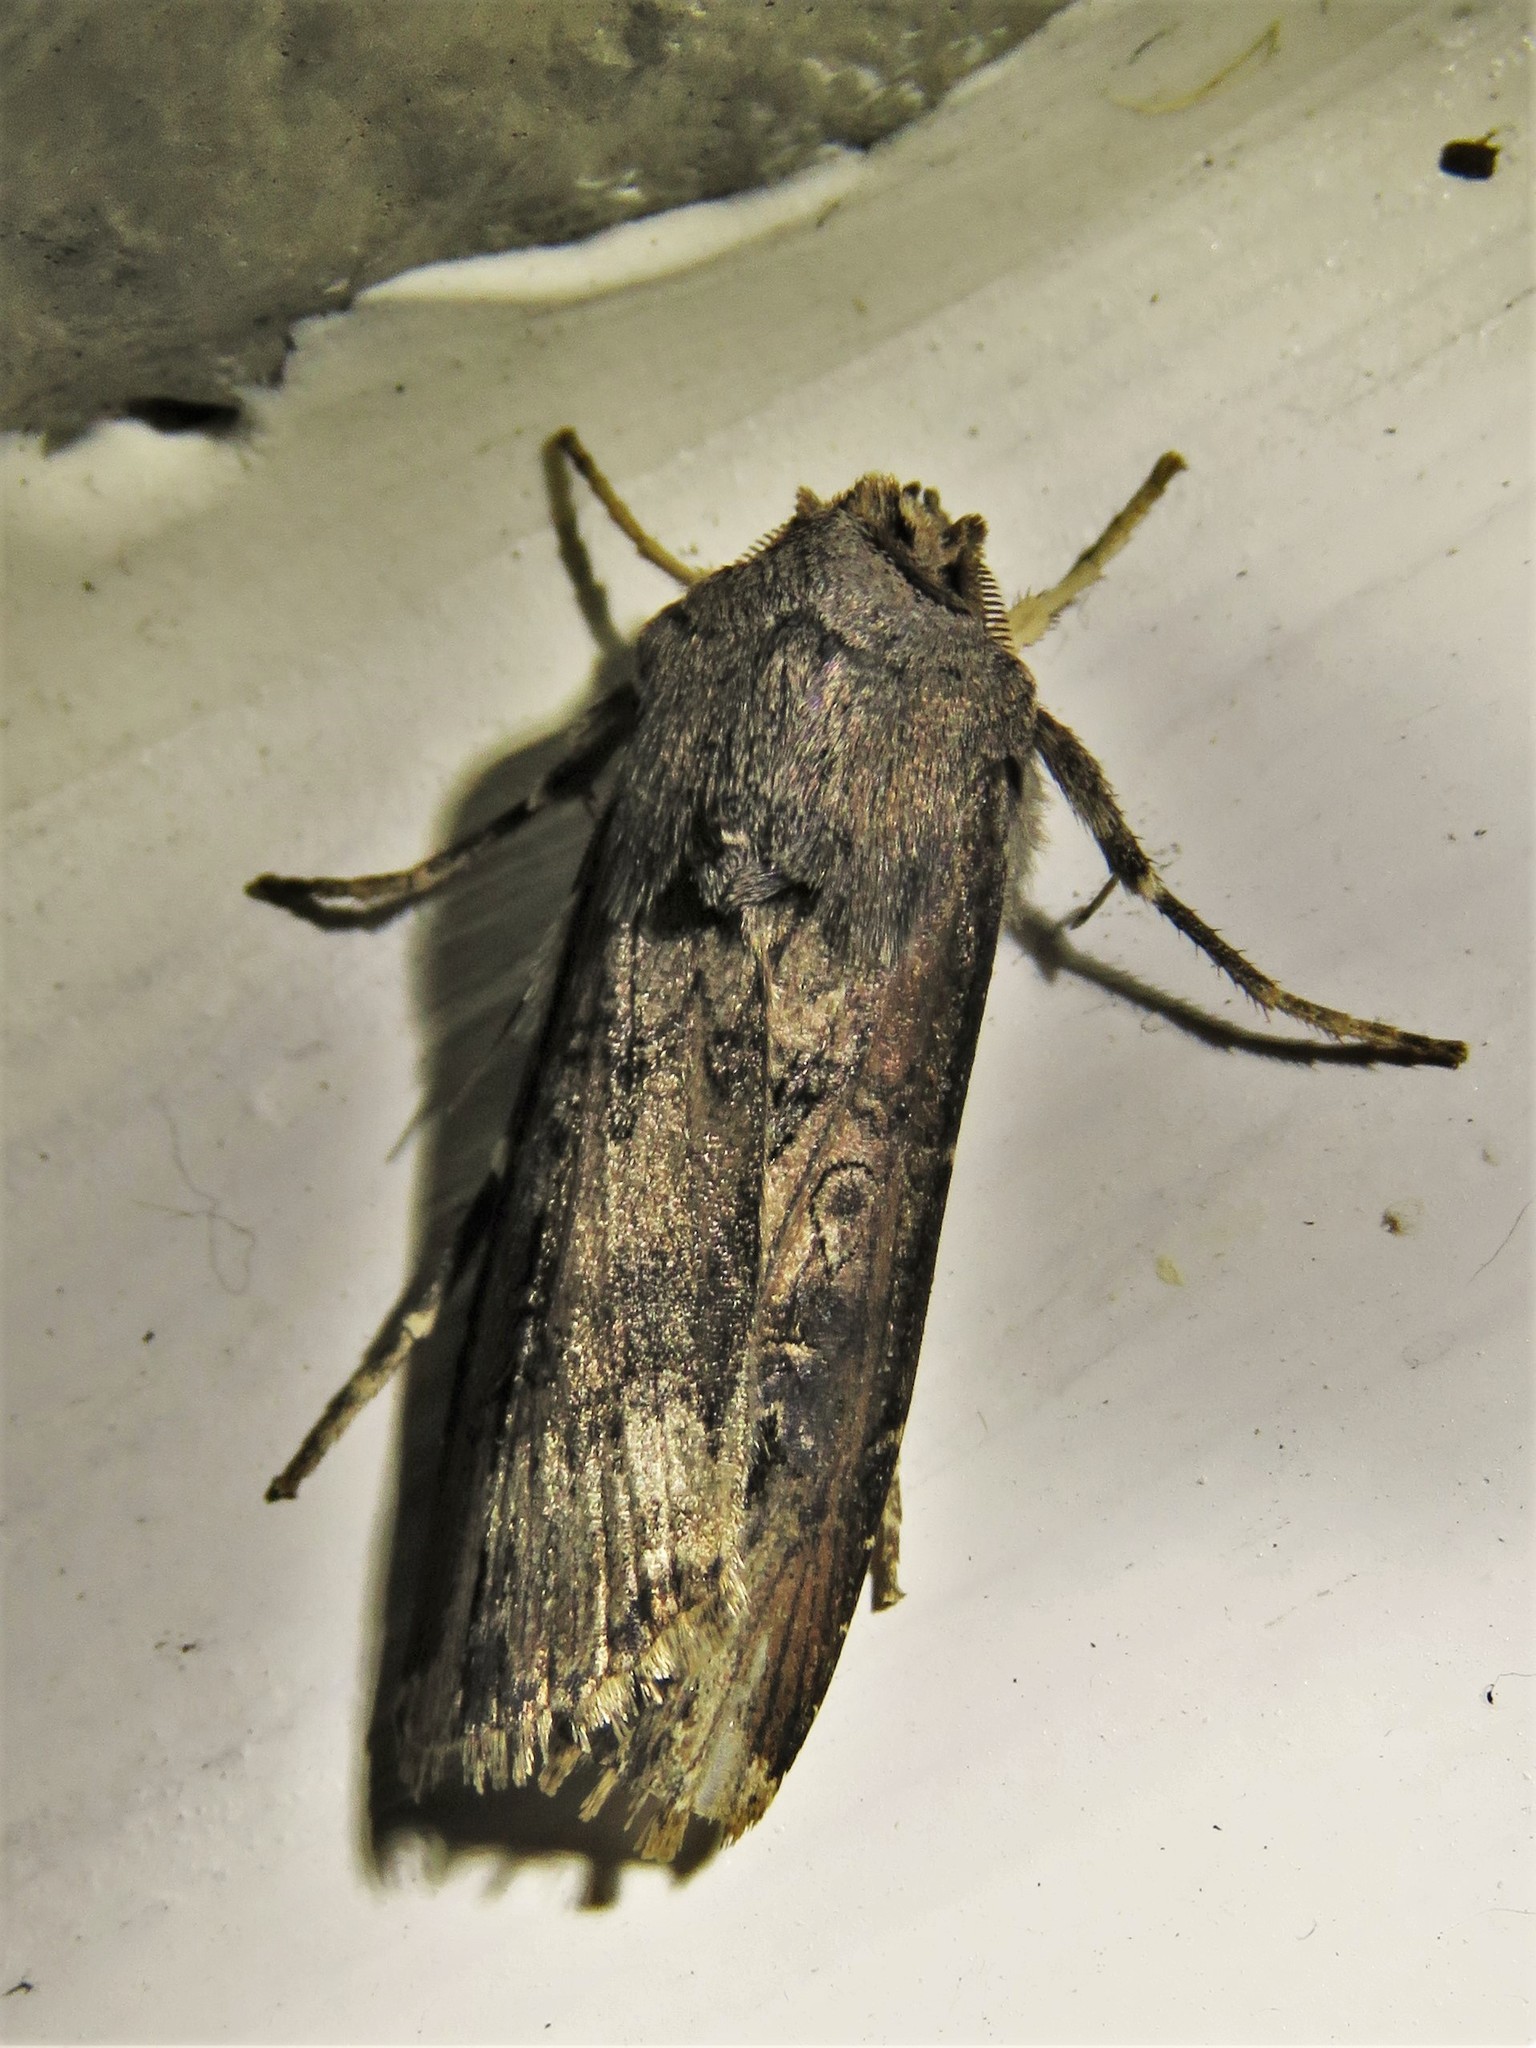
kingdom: Animalia
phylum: Arthropoda
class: Insecta
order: Lepidoptera
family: Noctuidae
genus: Agrotis
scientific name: Agrotis ipsilon
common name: Dark sword-grass
